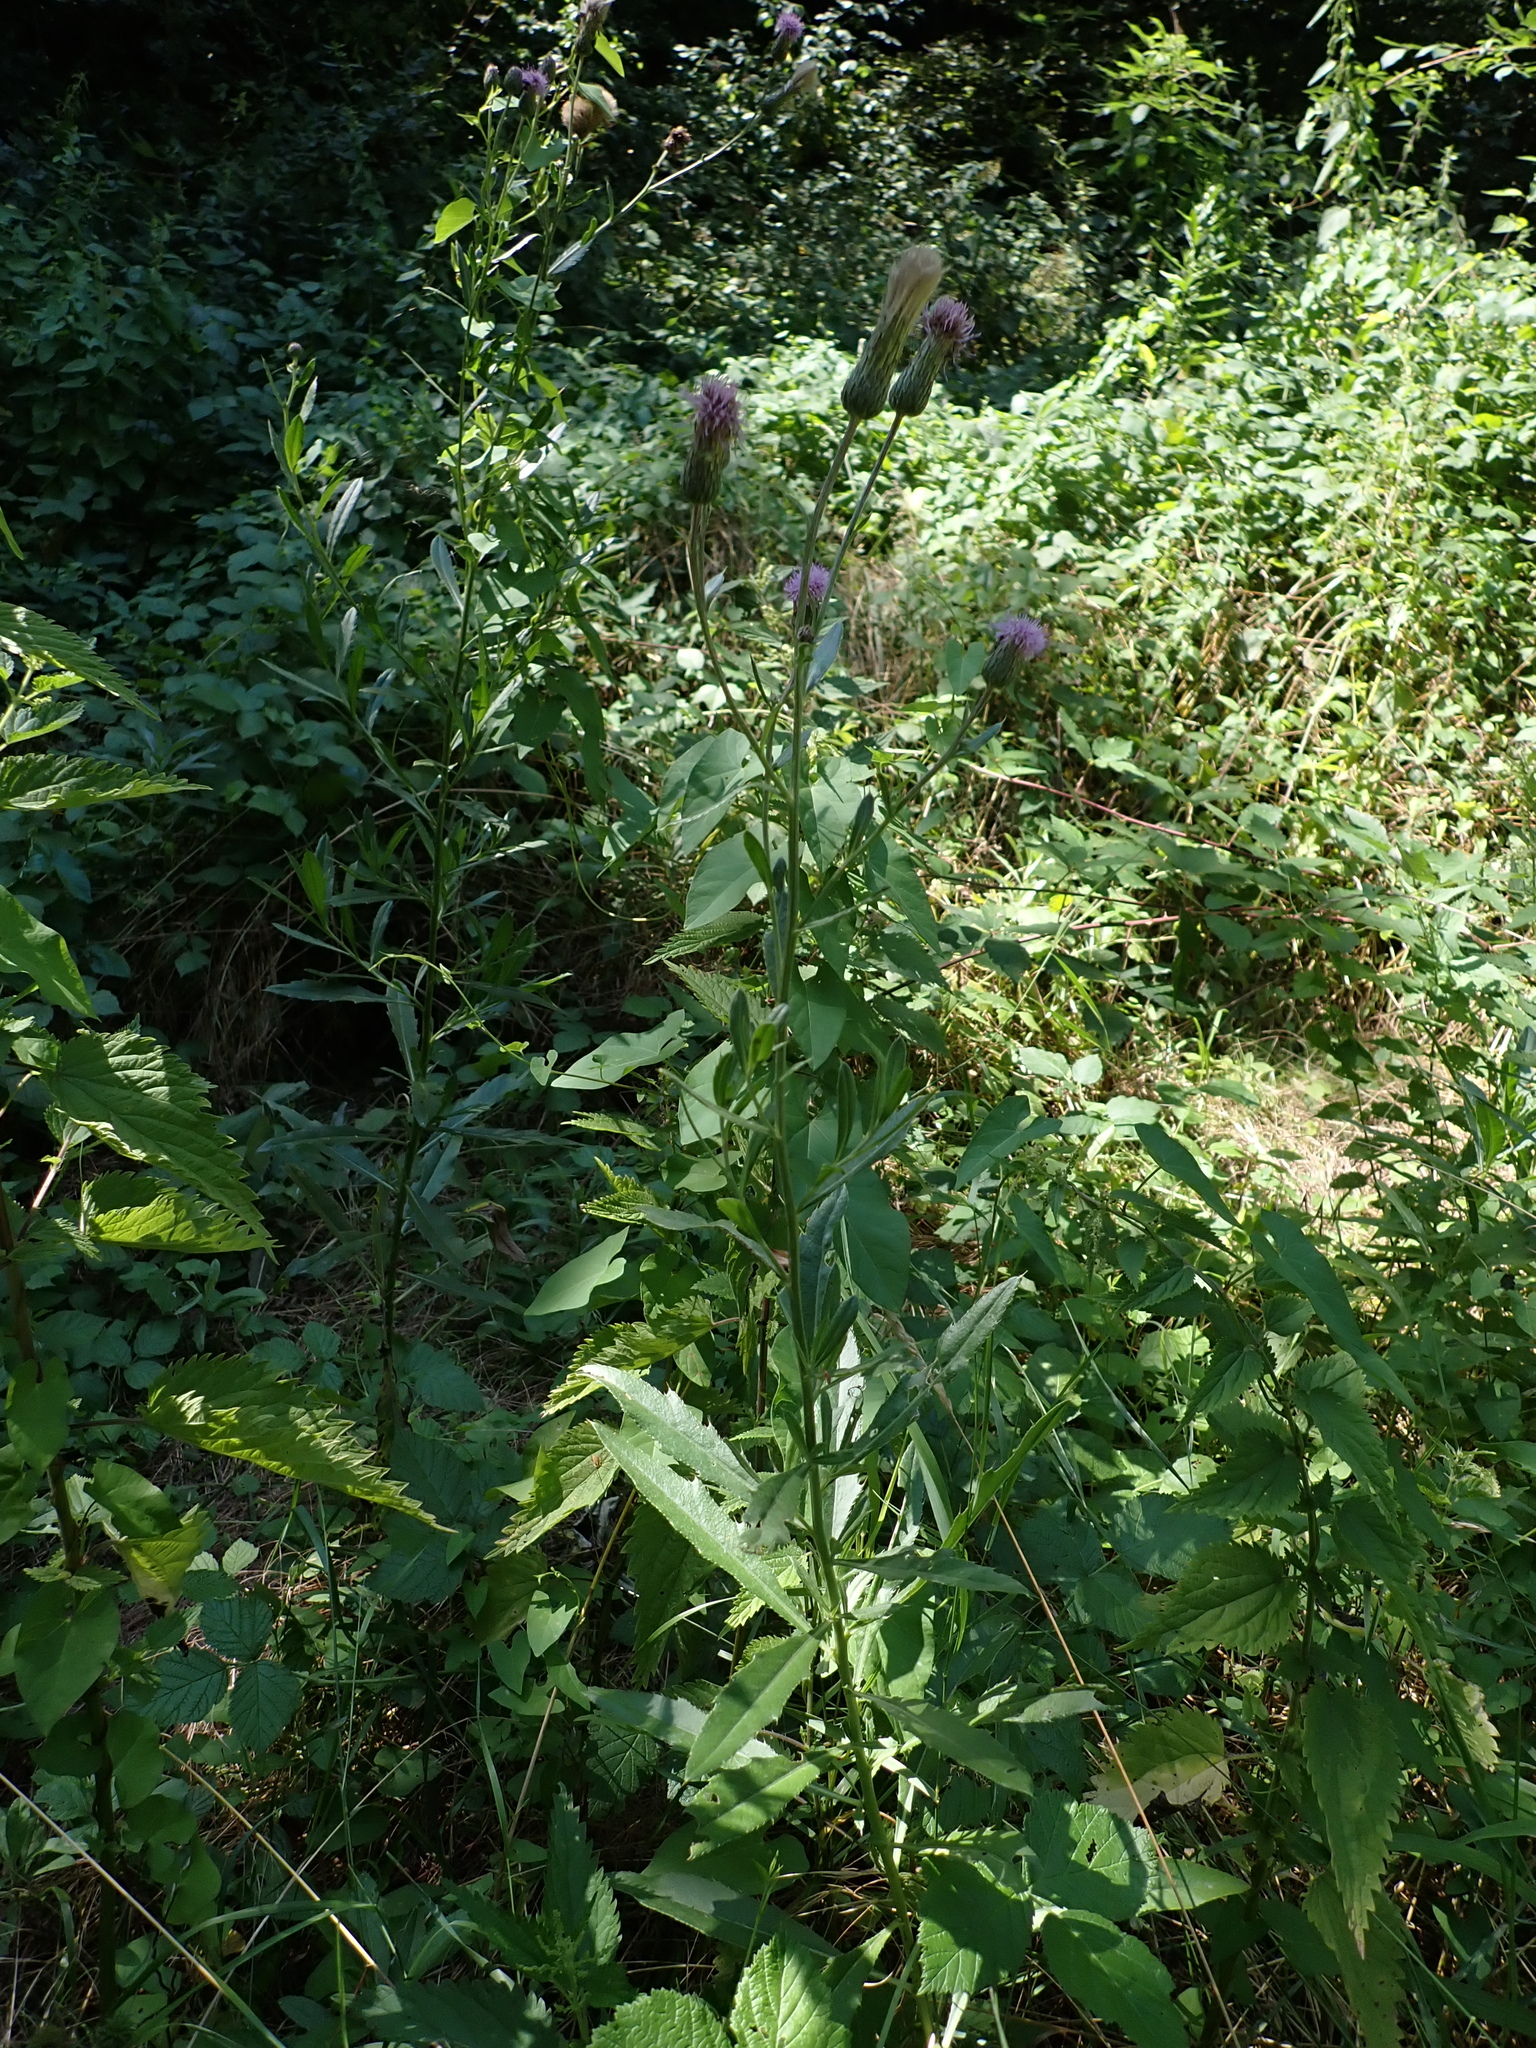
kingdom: Plantae
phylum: Tracheophyta
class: Magnoliopsida
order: Asterales
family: Asteraceae
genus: Cirsium
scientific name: Cirsium arvense
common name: Creeping thistle
